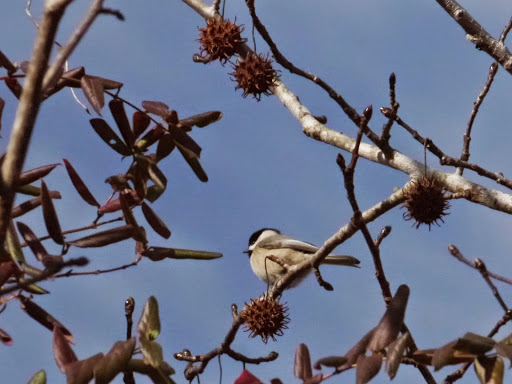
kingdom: Animalia
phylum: Chordata
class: Aves
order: Passeriformes
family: Paridae
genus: Poecile
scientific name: Poecile carolinensis
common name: Carolina chickadee
